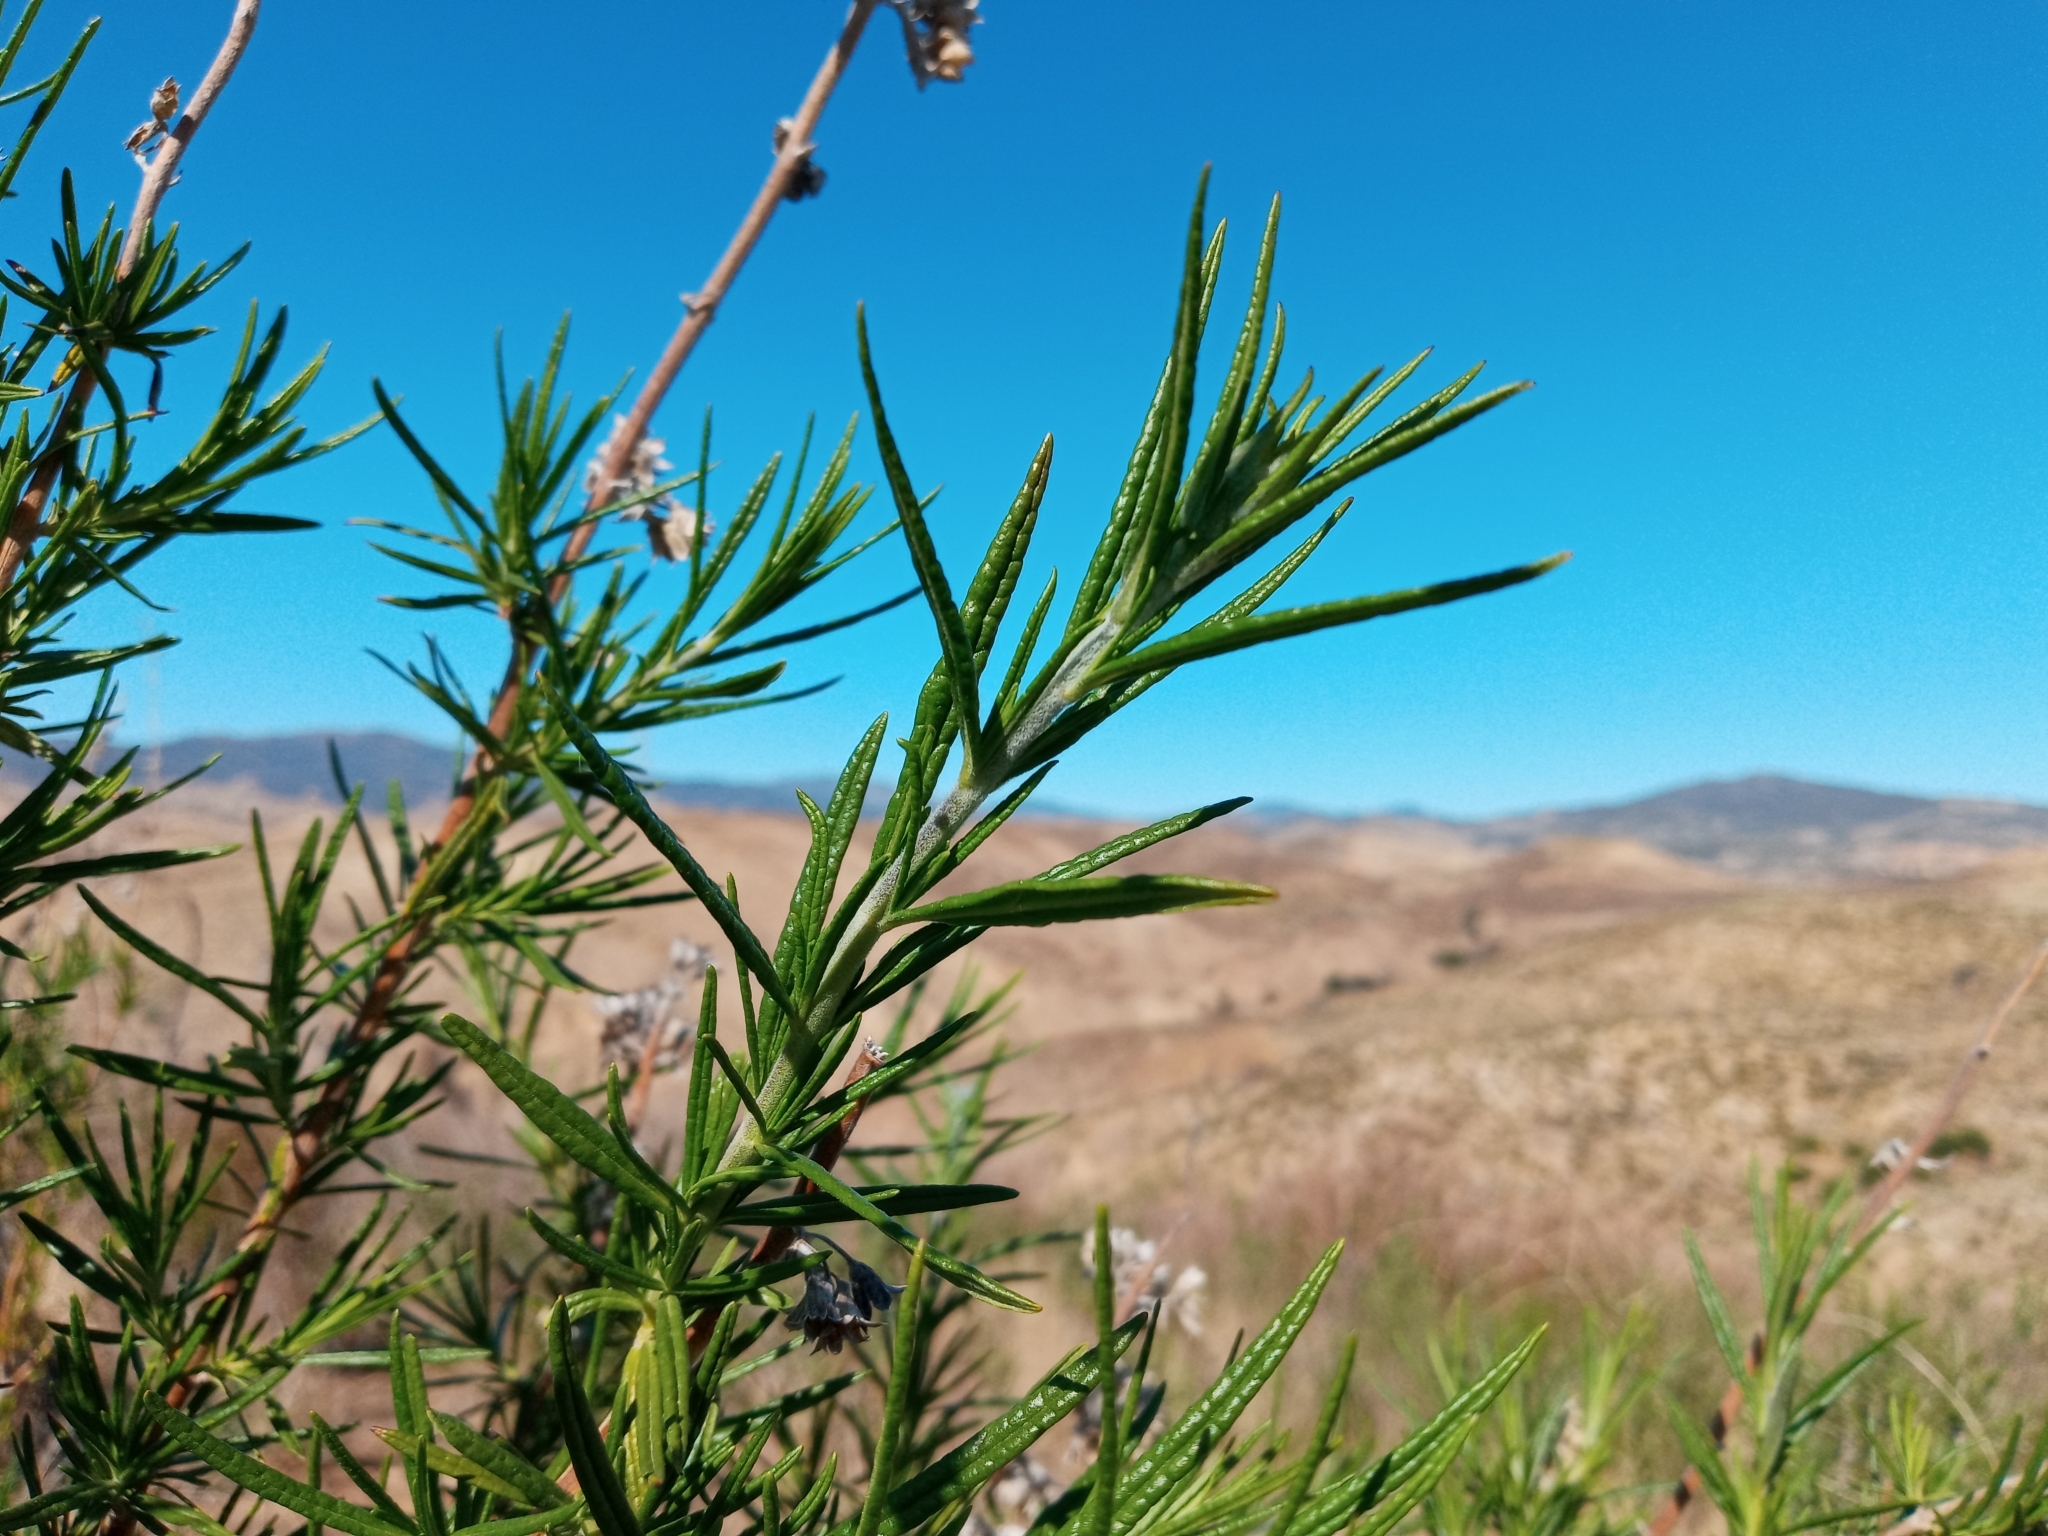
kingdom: Plantae
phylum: Tracheophyta
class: Magnoliopsida
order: Lamiales
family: Lamiaceae
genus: Trichostema
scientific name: Trichostema lanatum
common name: Woolly bluecurls
